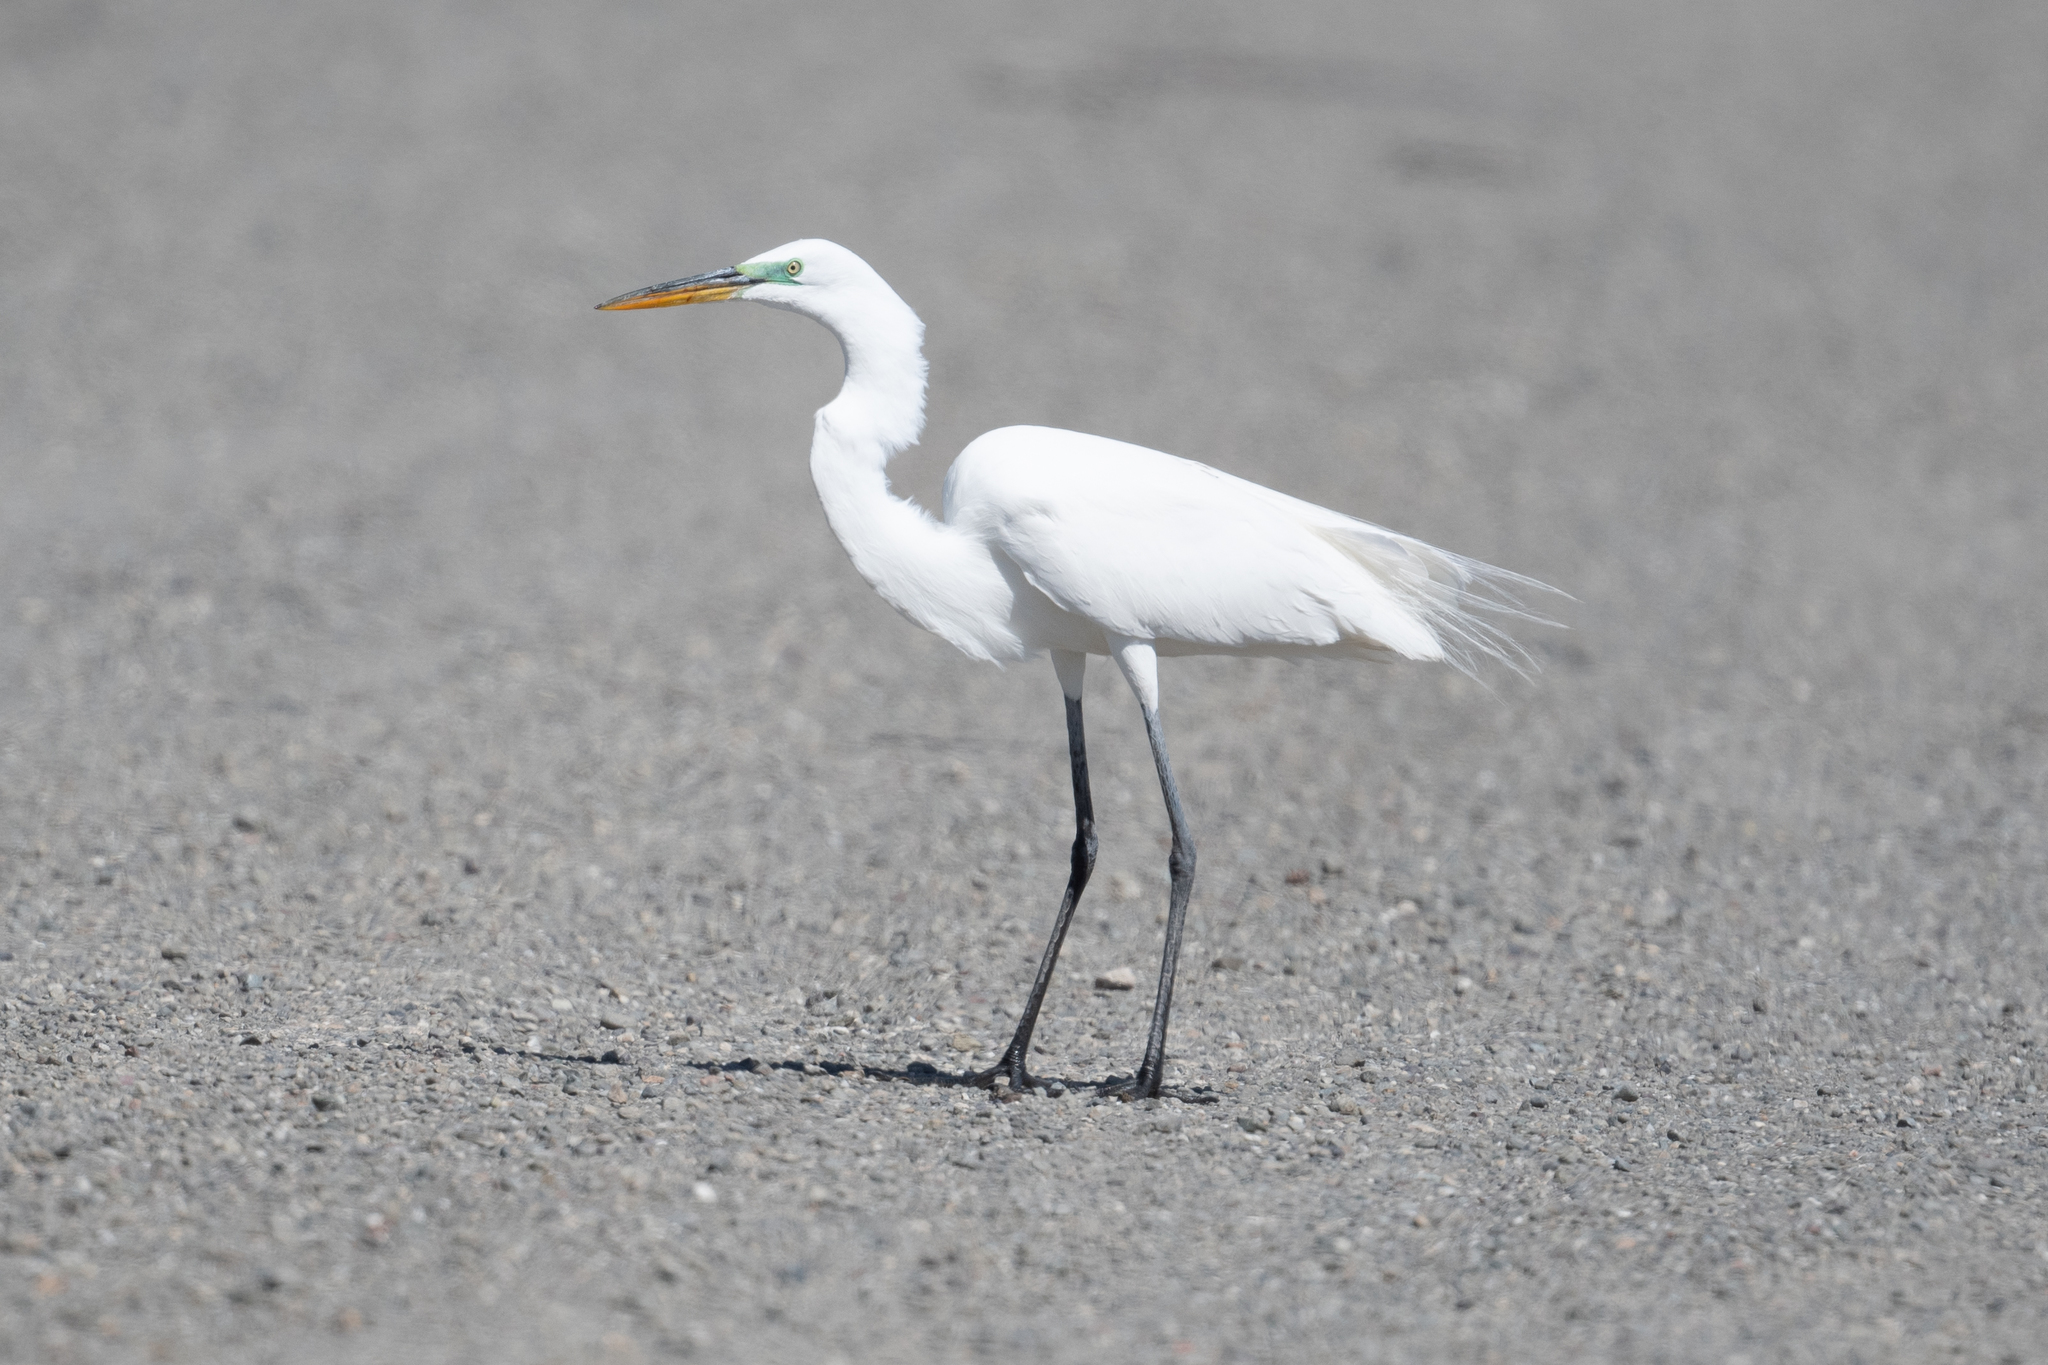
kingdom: Animalia
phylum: Chordata
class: Aves
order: Pelecaniformes
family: Ardeidae
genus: Ardea
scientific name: Ardea alba
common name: Great egret
